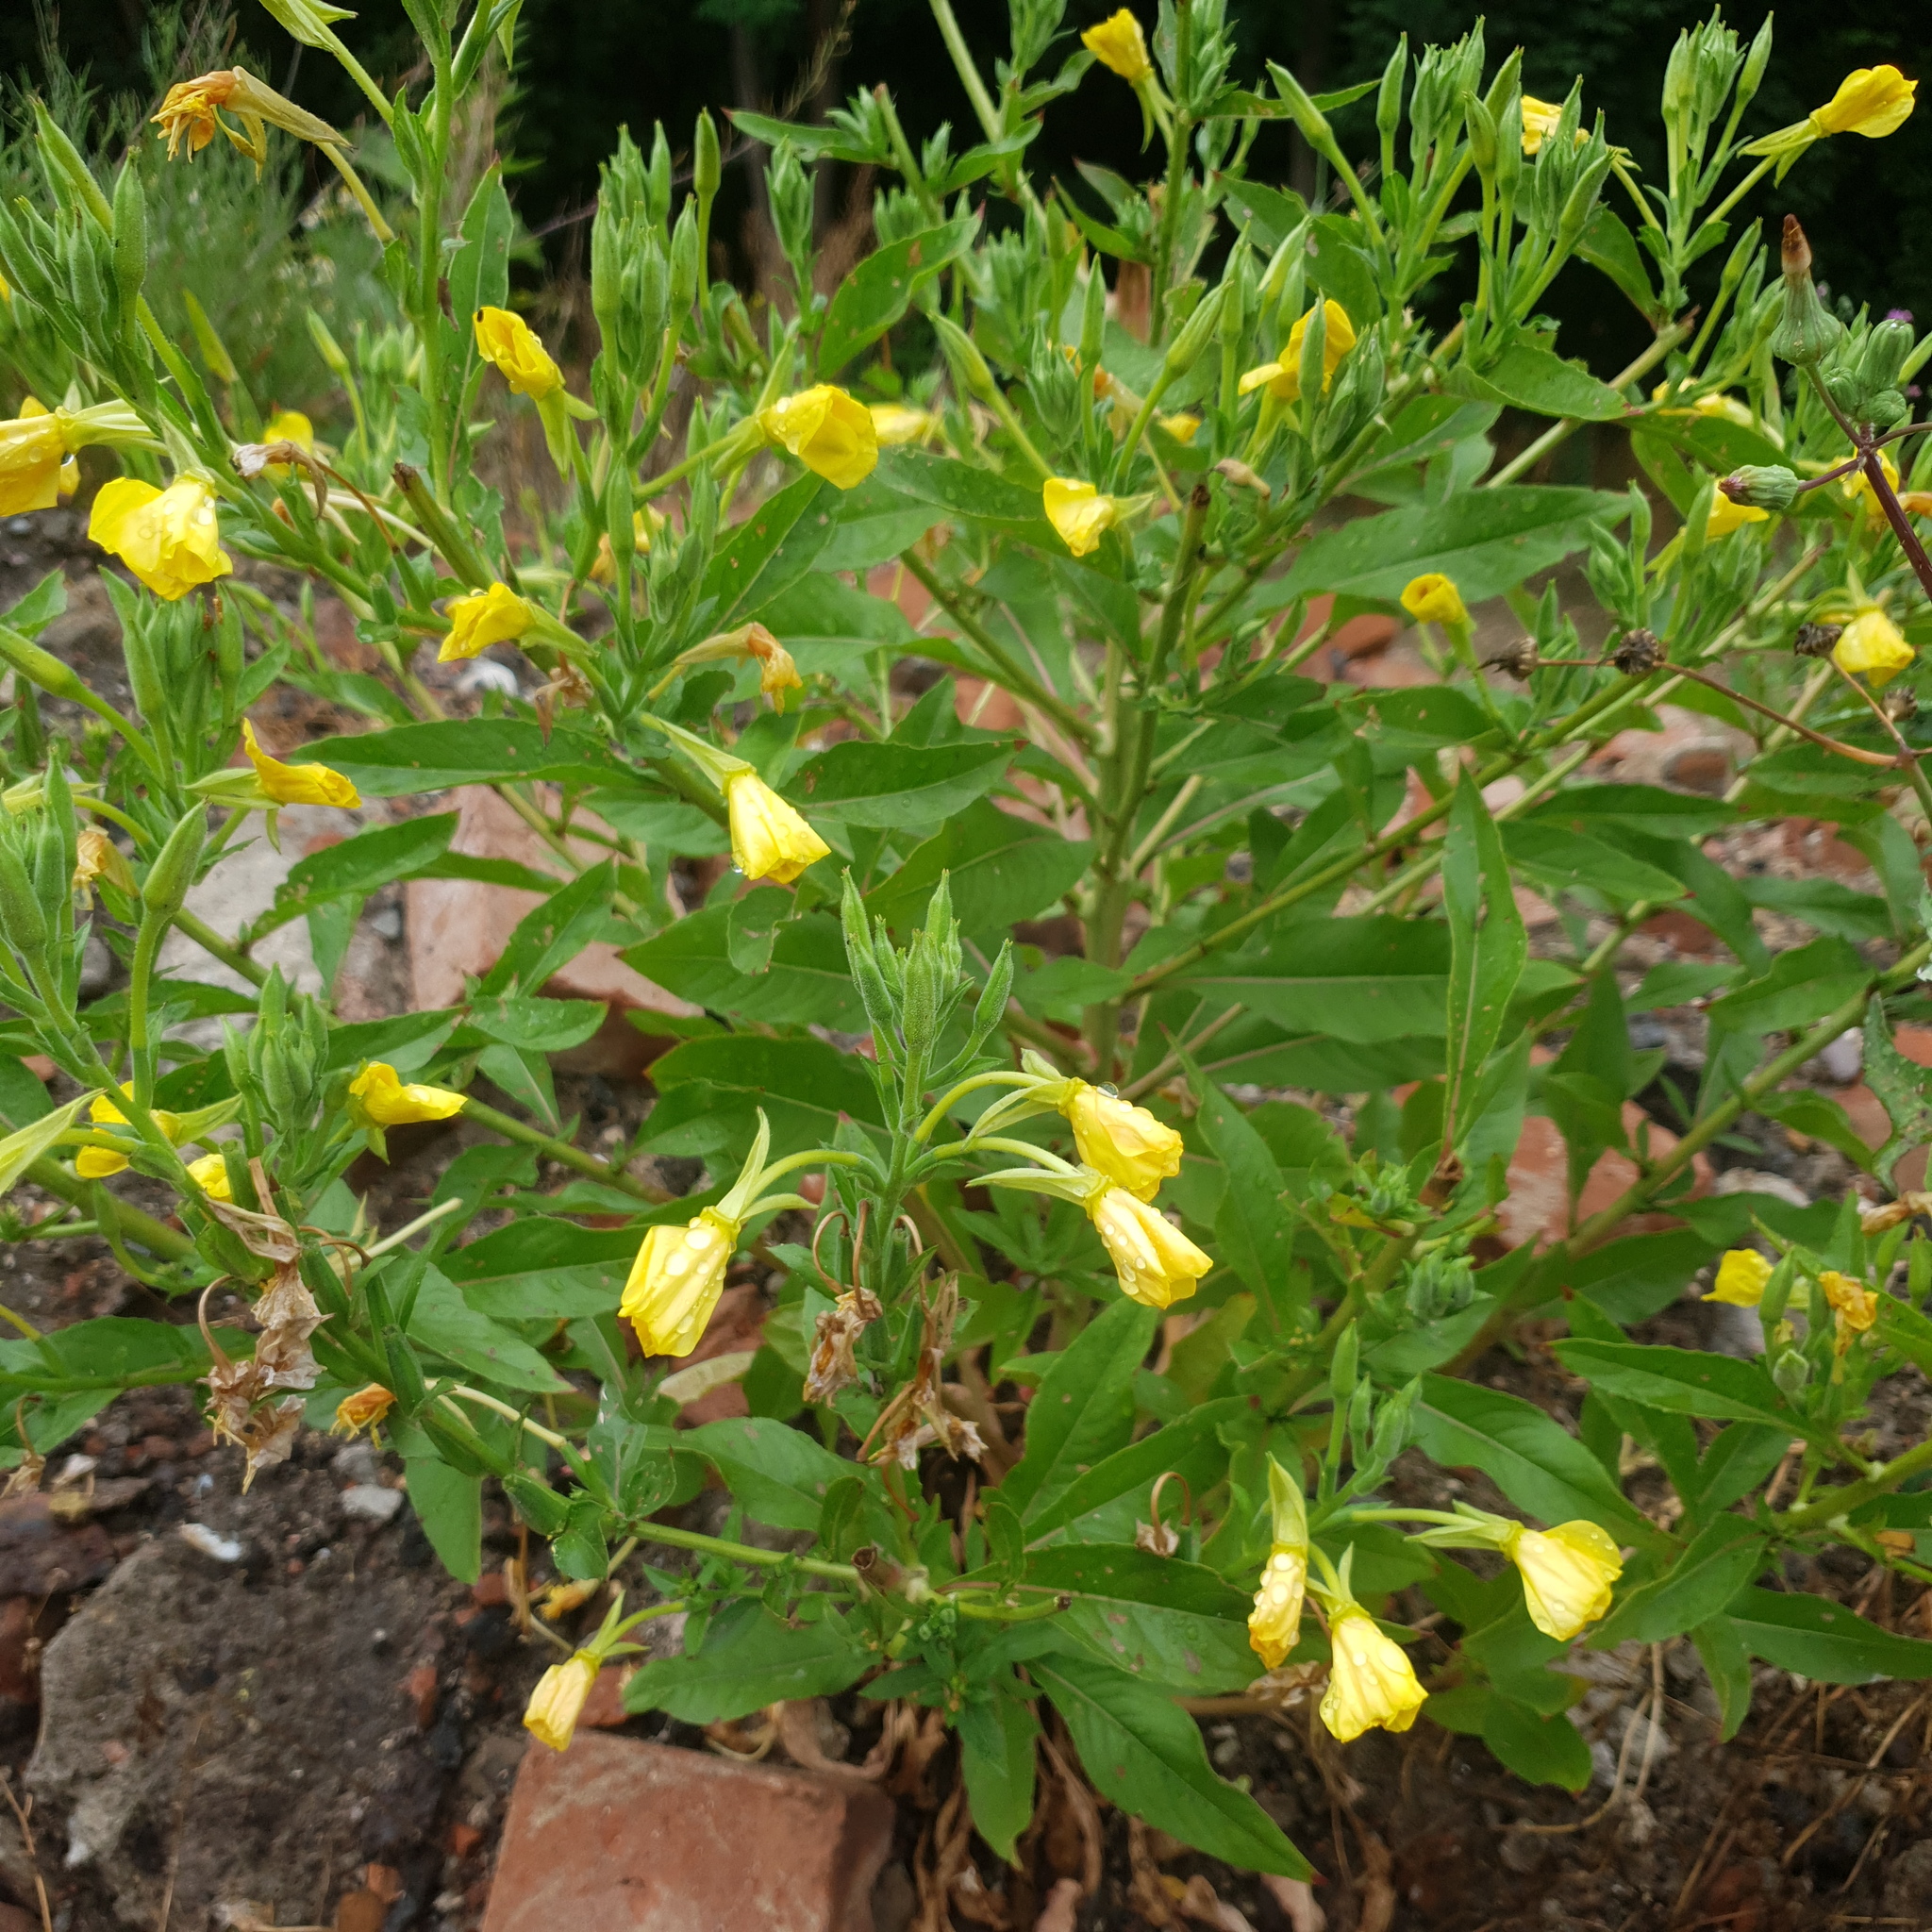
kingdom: Plantae
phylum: Tracheophyta
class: Magnoliopsida
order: Myrtales
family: Onagraceae
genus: Oenothera
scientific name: Oenothera biennis
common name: Common evening-primrose
